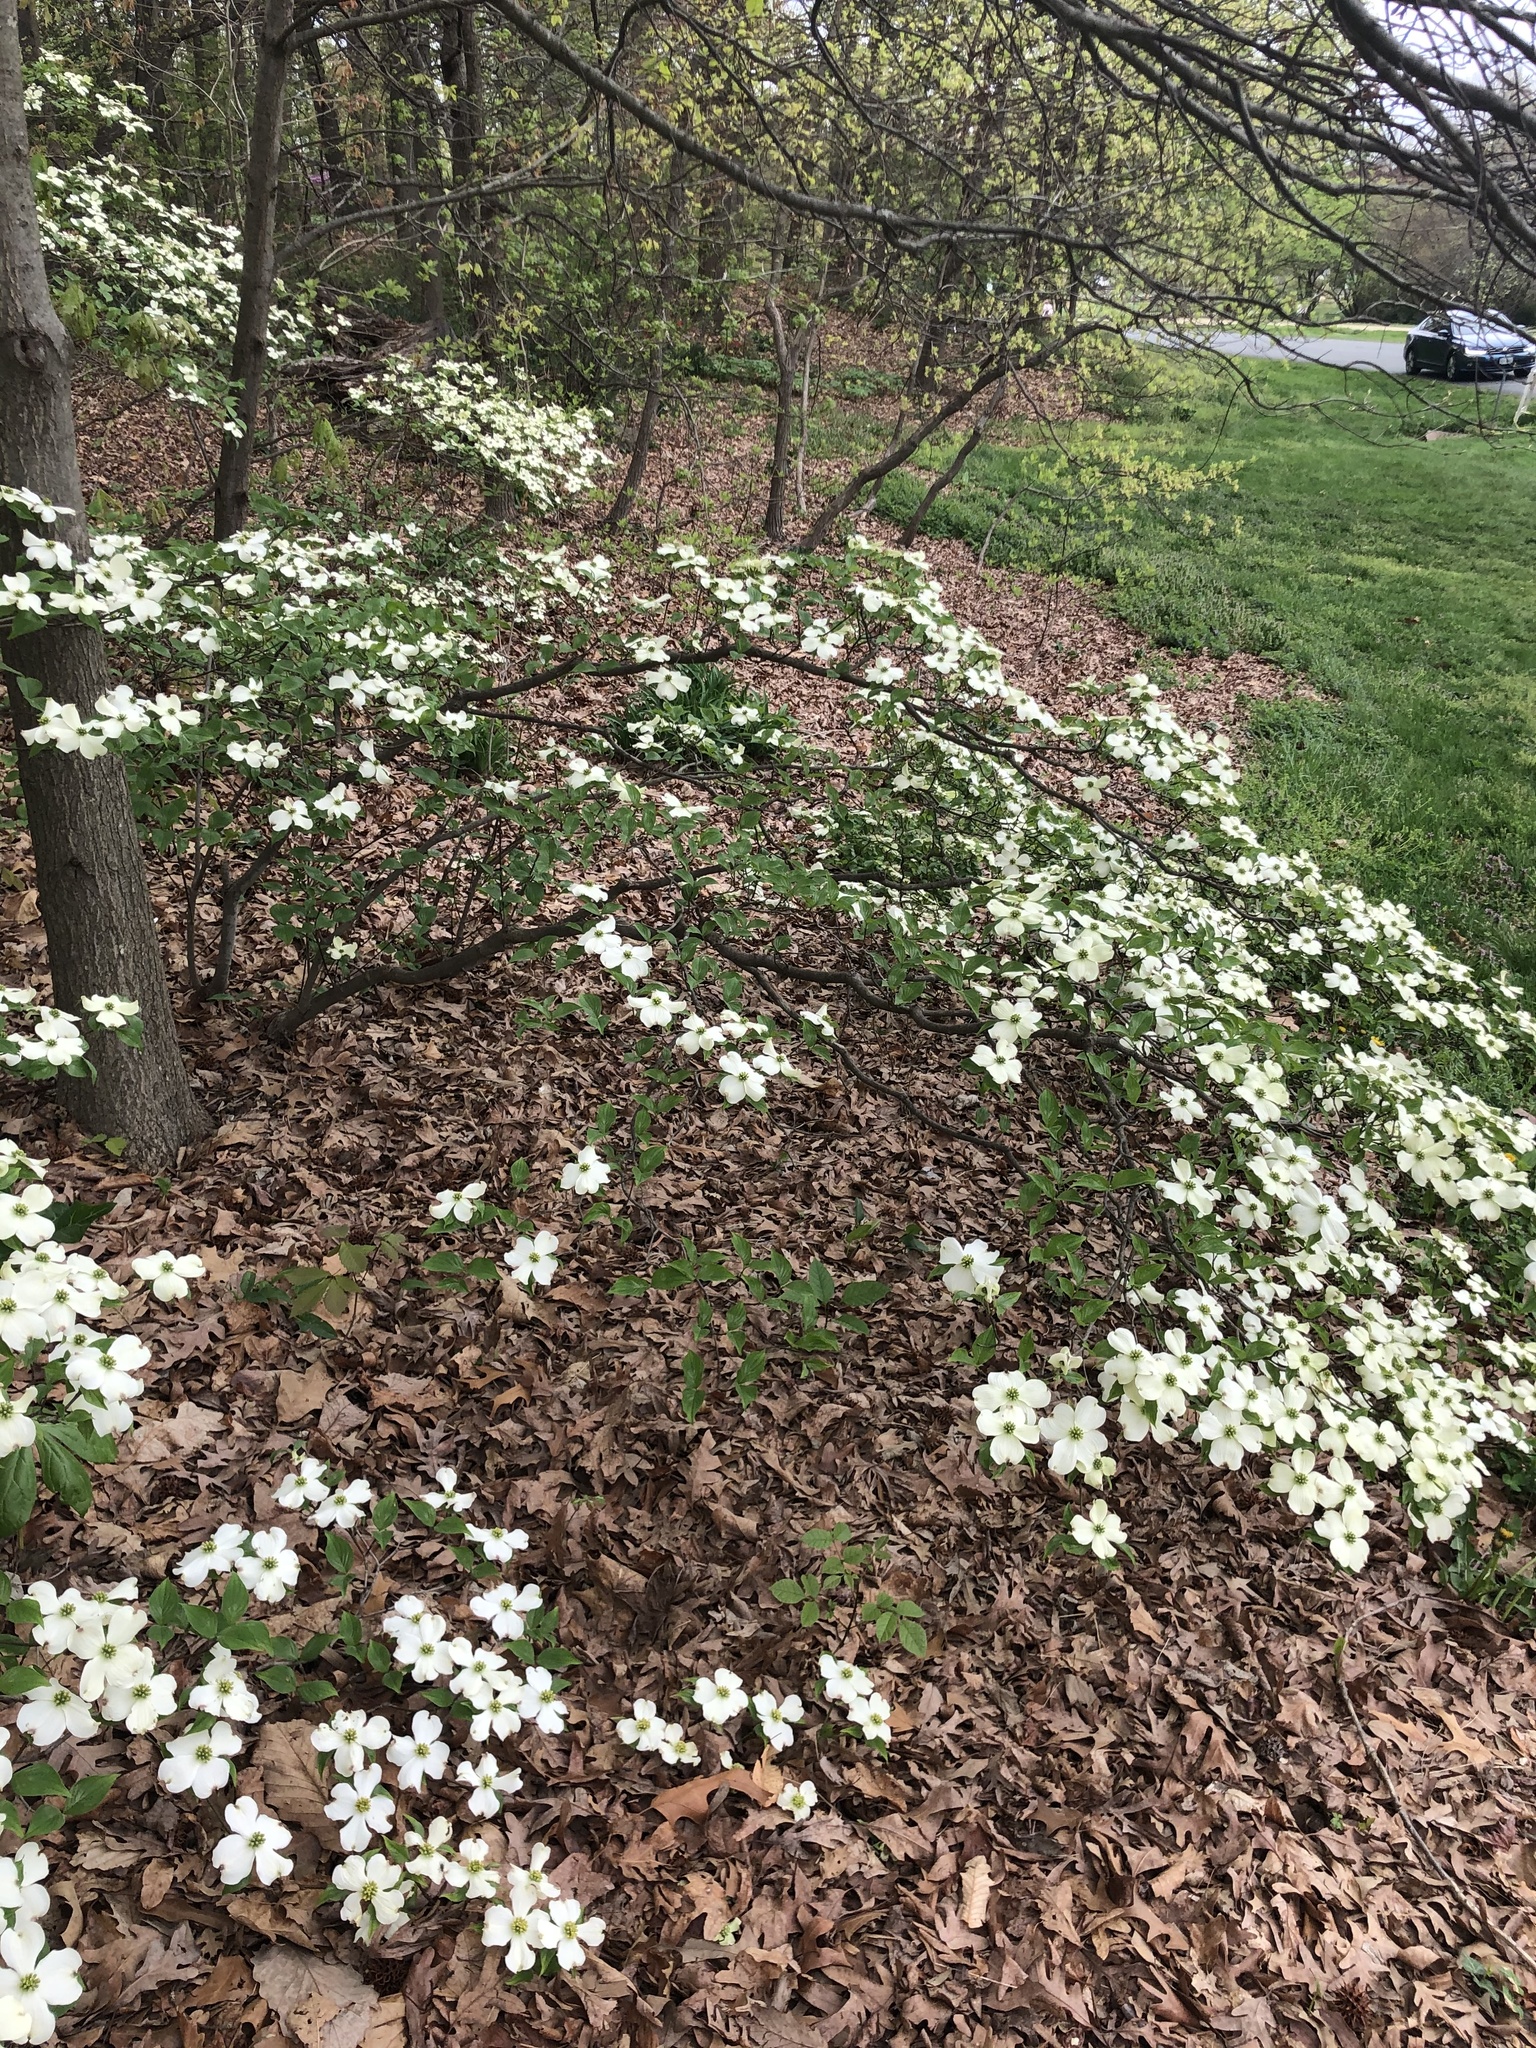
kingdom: Plantae
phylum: Tracheophyta
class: Magnoliopsida
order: Cornales
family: Cornaceae
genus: Cornus
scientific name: Cornus florida
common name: Flowering dogwood
